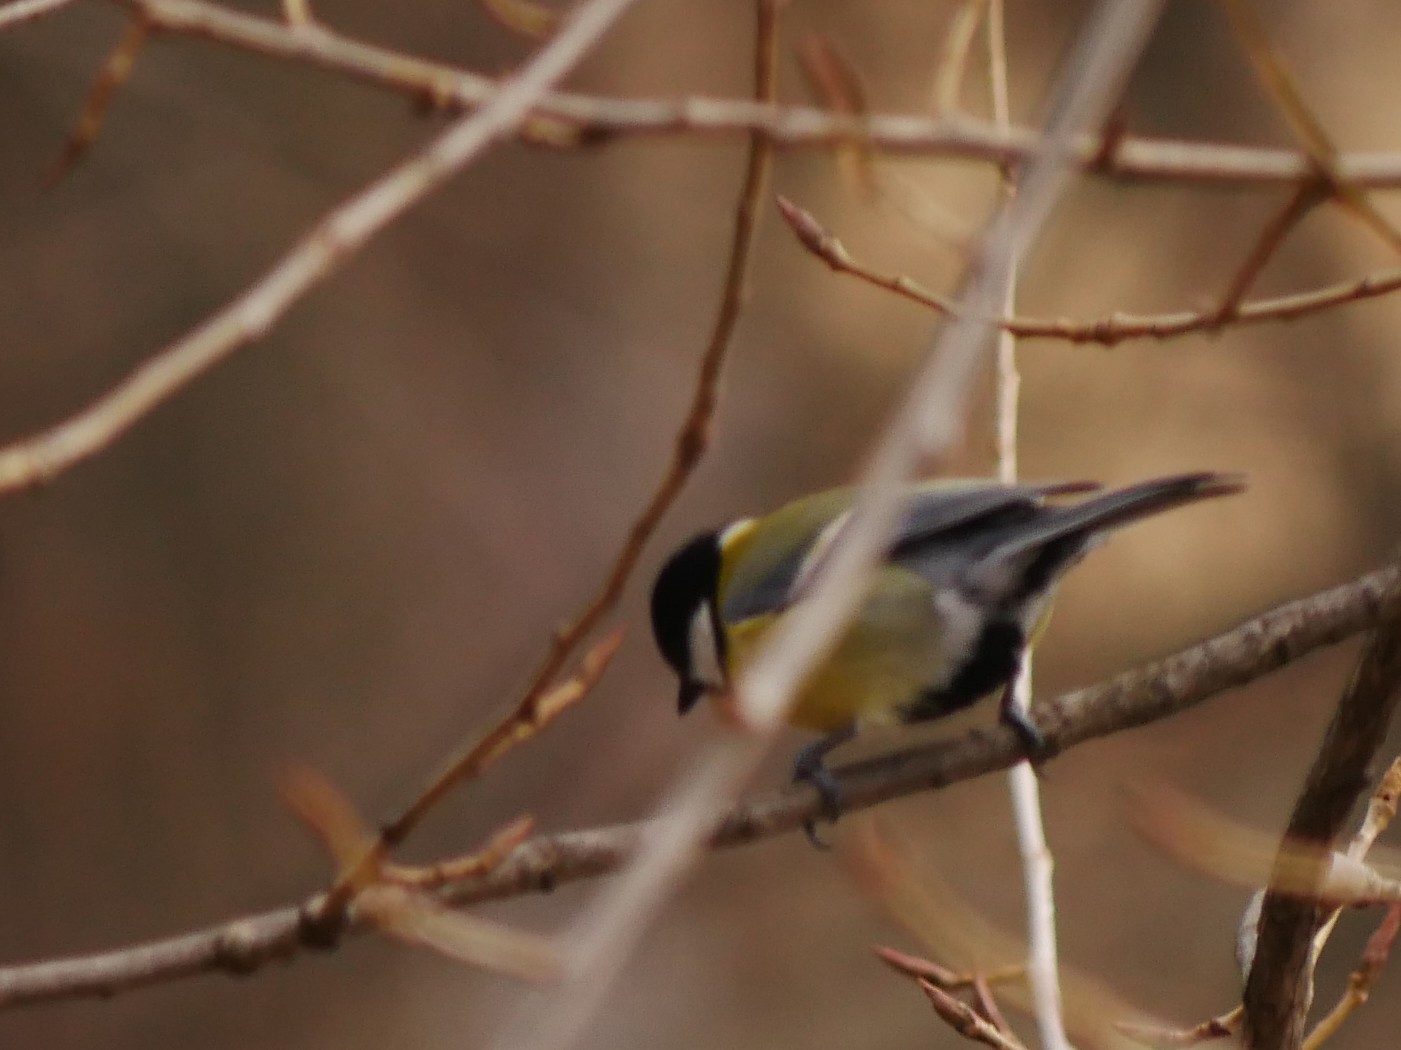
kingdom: Animalia
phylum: Chordata
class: Aves
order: Passeriformes
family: Paridae
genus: Parus
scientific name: Parus major
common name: Great tit
